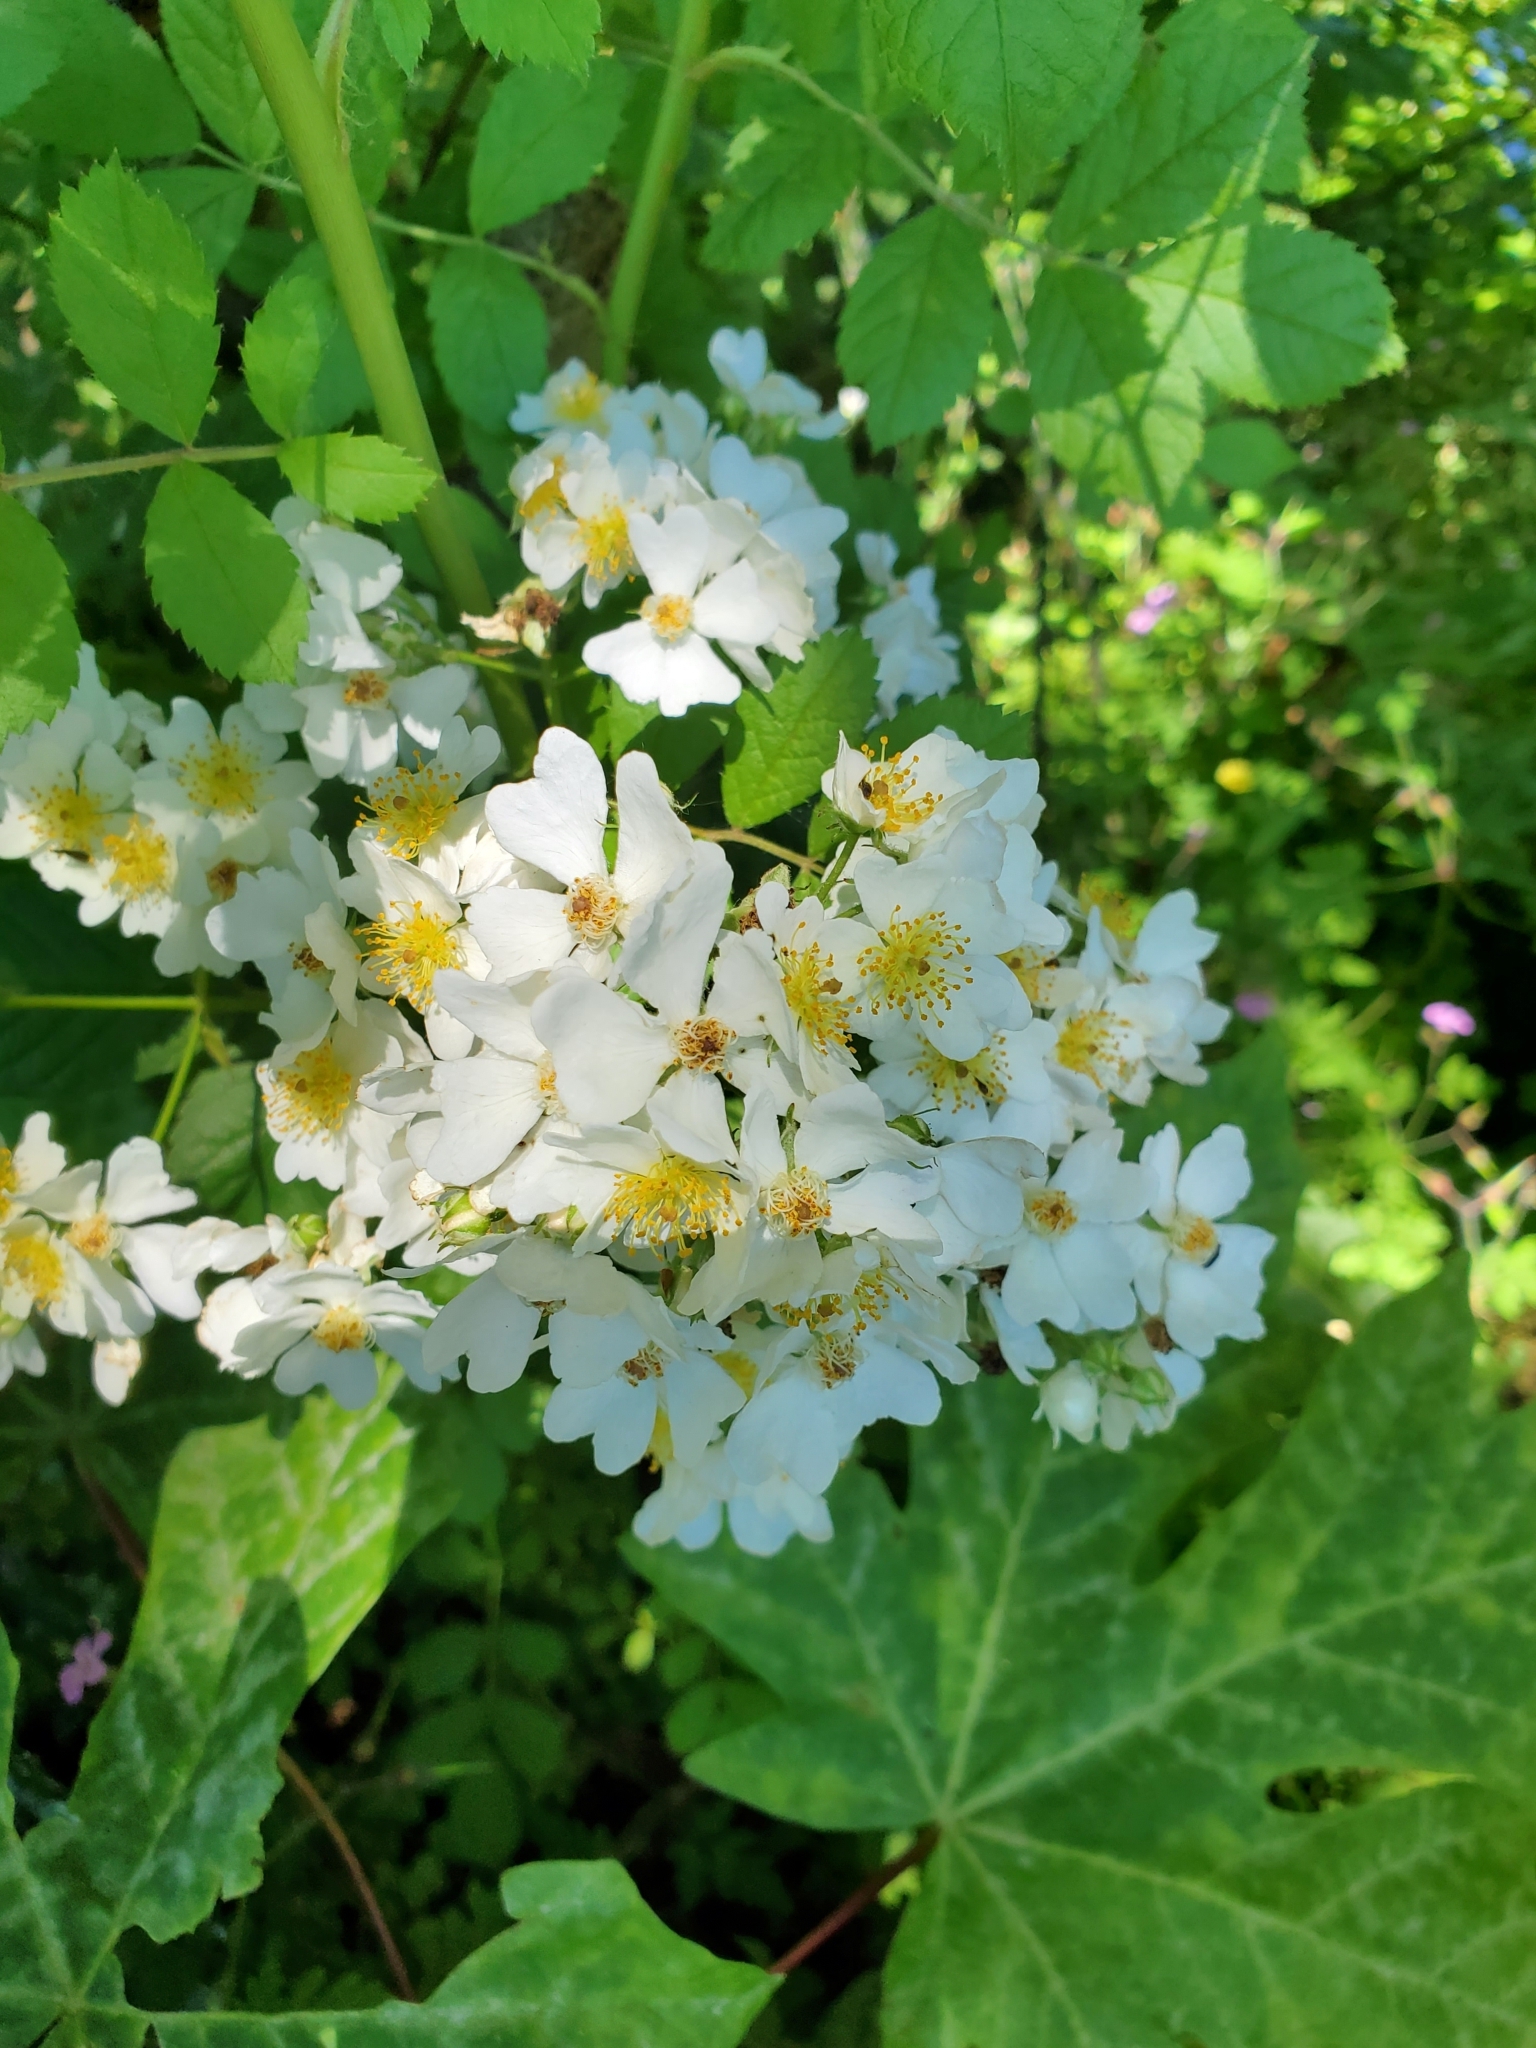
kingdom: Plantae
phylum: Tracheophyta
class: Magnoliopsida
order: Rosales
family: Rosaceae
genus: Rosa
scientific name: Rosa multiflora
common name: Multiflora rose
